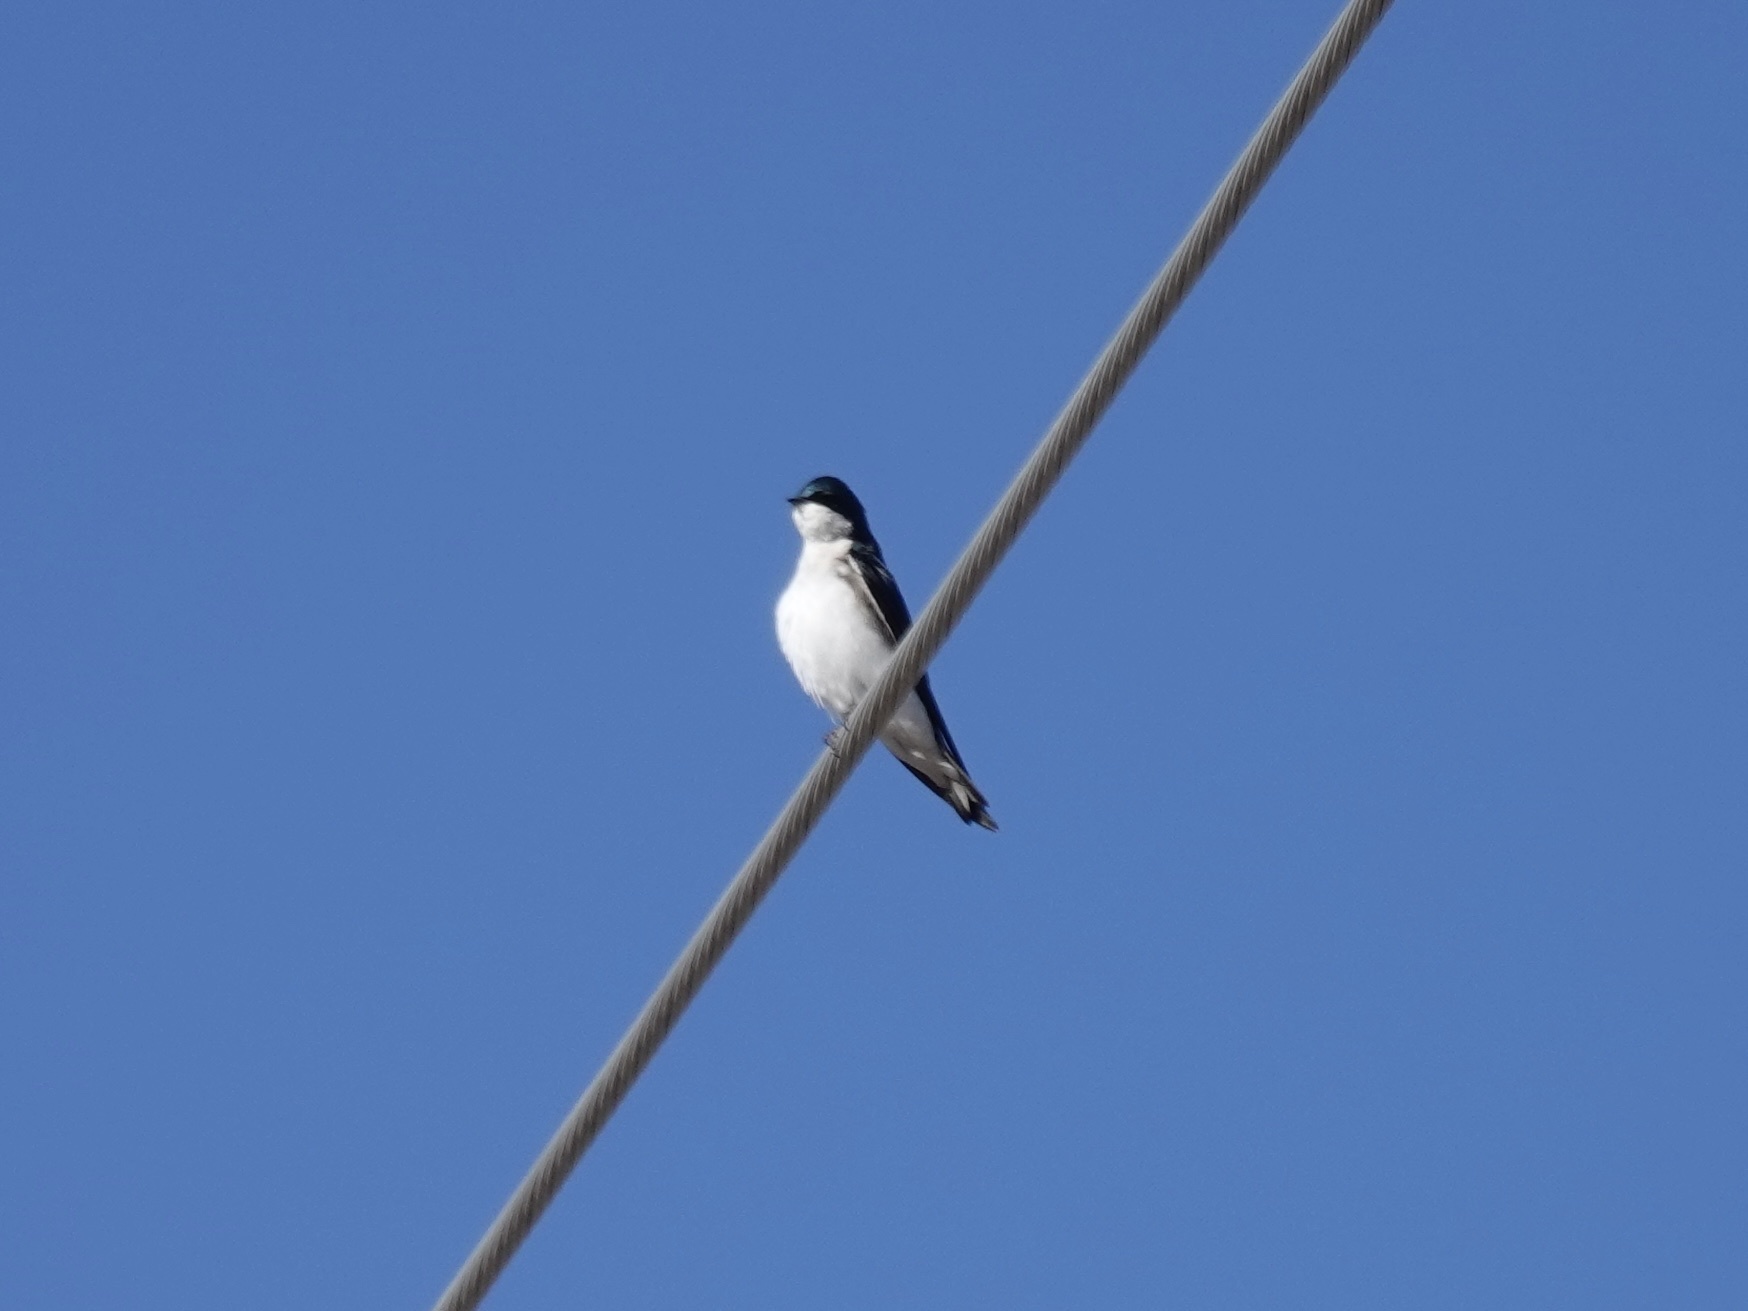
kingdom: Animalia
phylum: Chordata
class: Aves
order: Passeriformes
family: Hirundinidae
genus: Tachycineta
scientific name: Tachycineta bicolor
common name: Tree swallow
